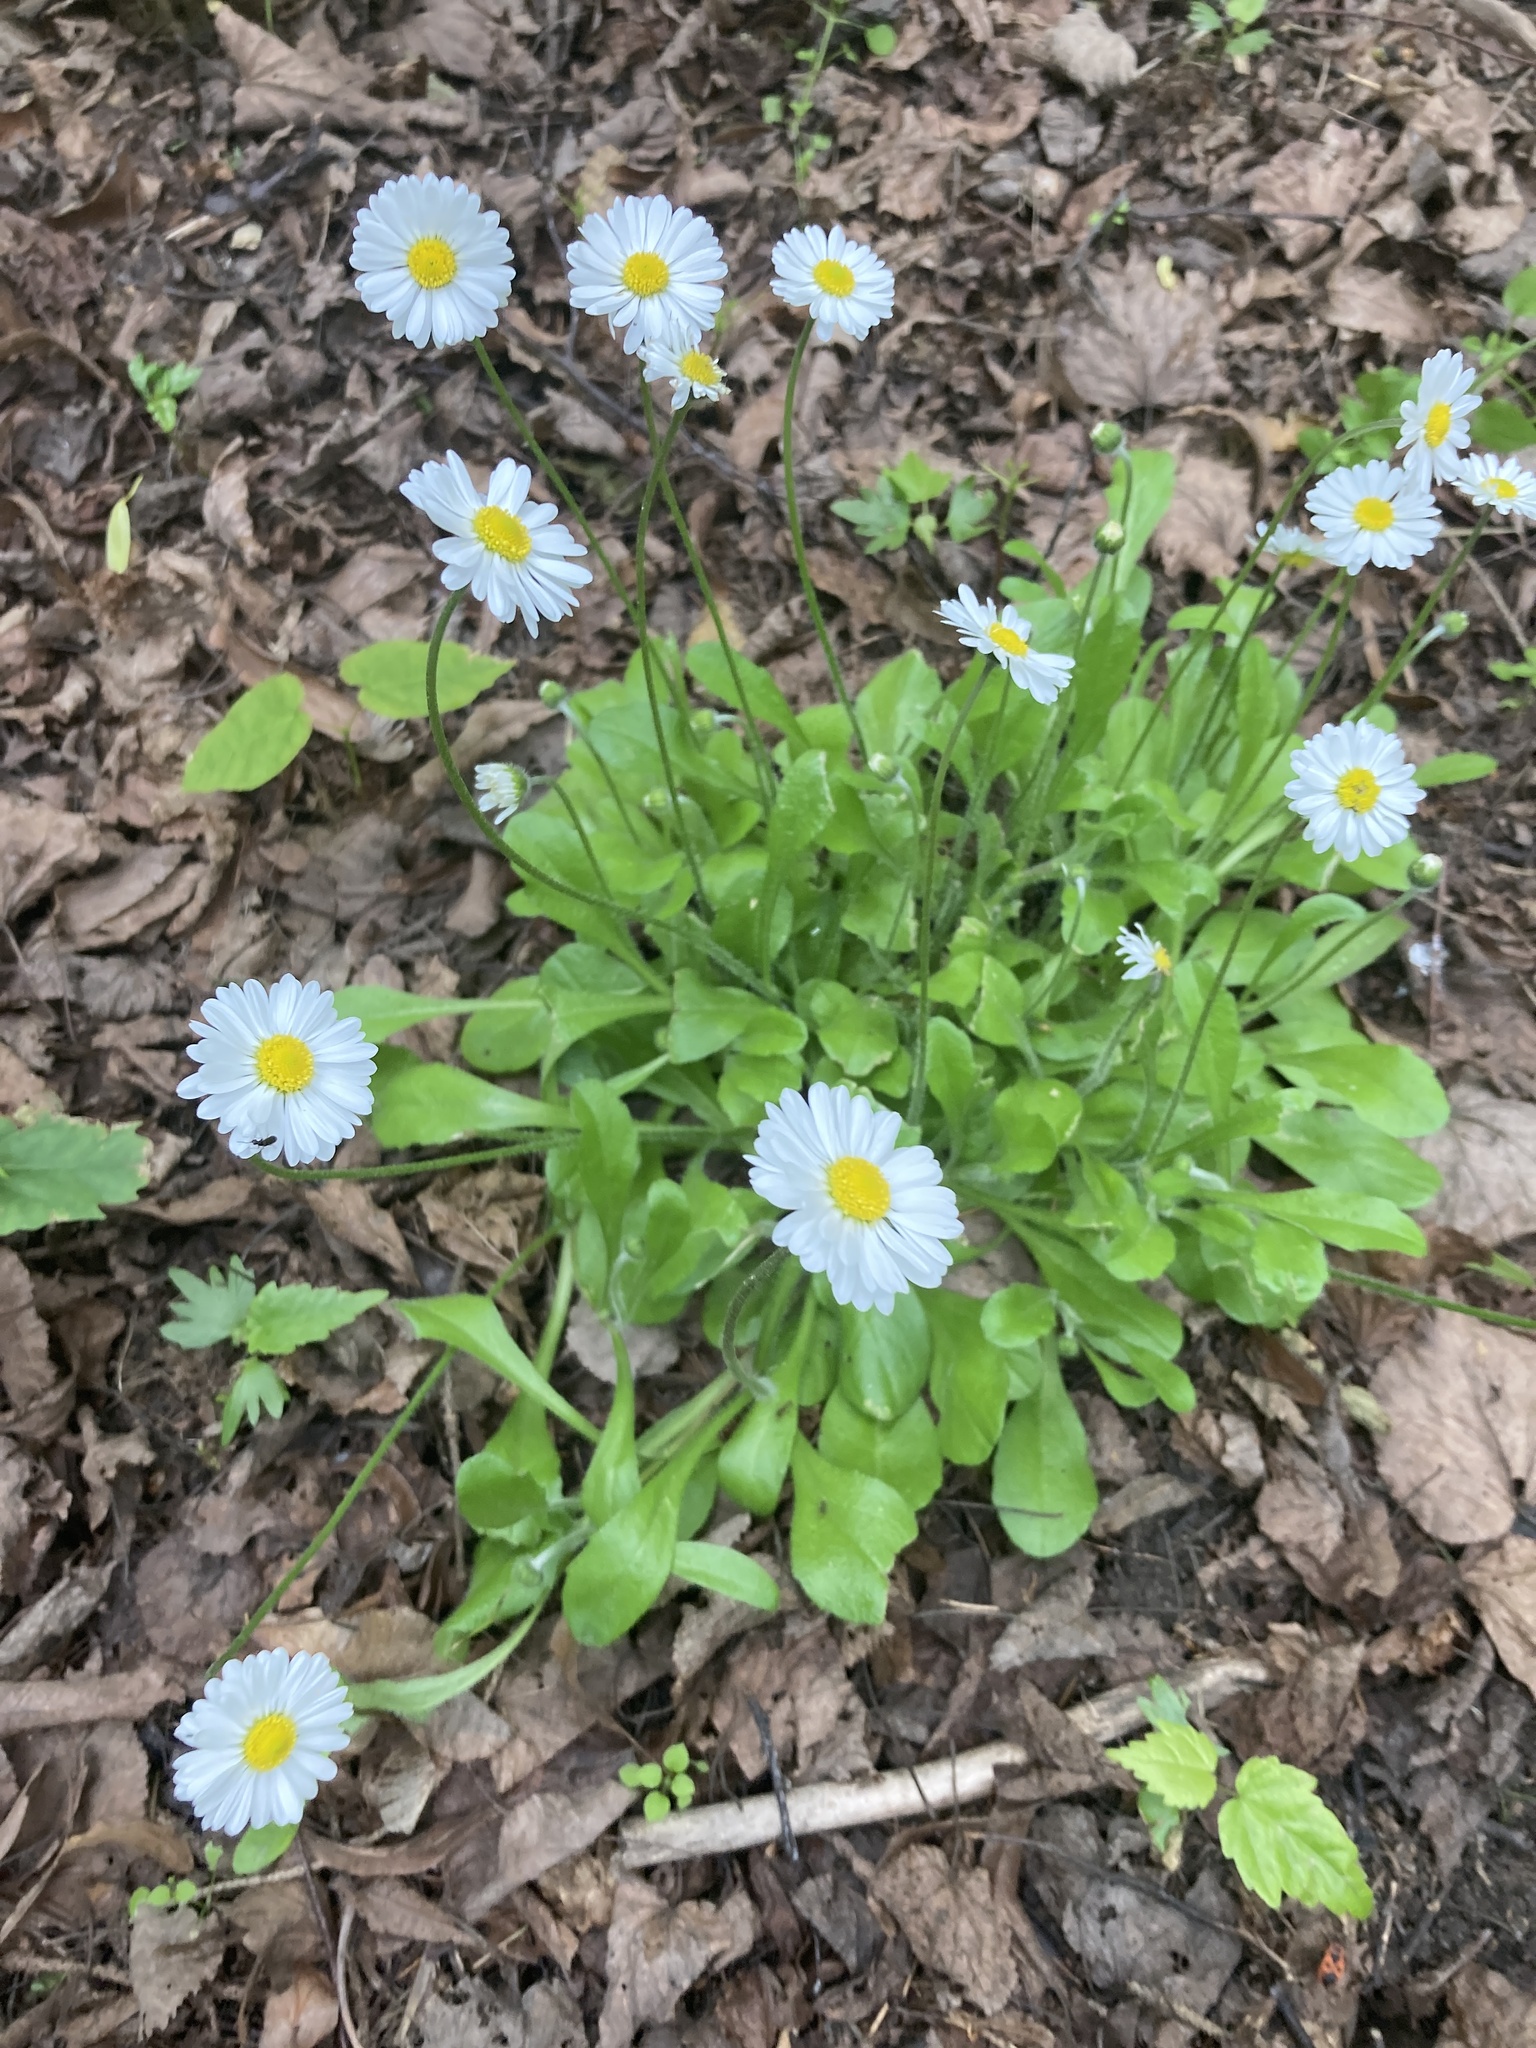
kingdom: Plantae
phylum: Tracheophyta
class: Magnoliopsida
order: Asterales
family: Asteraceae
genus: Bellis
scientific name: Bellis perennis
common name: Lawndaisy
